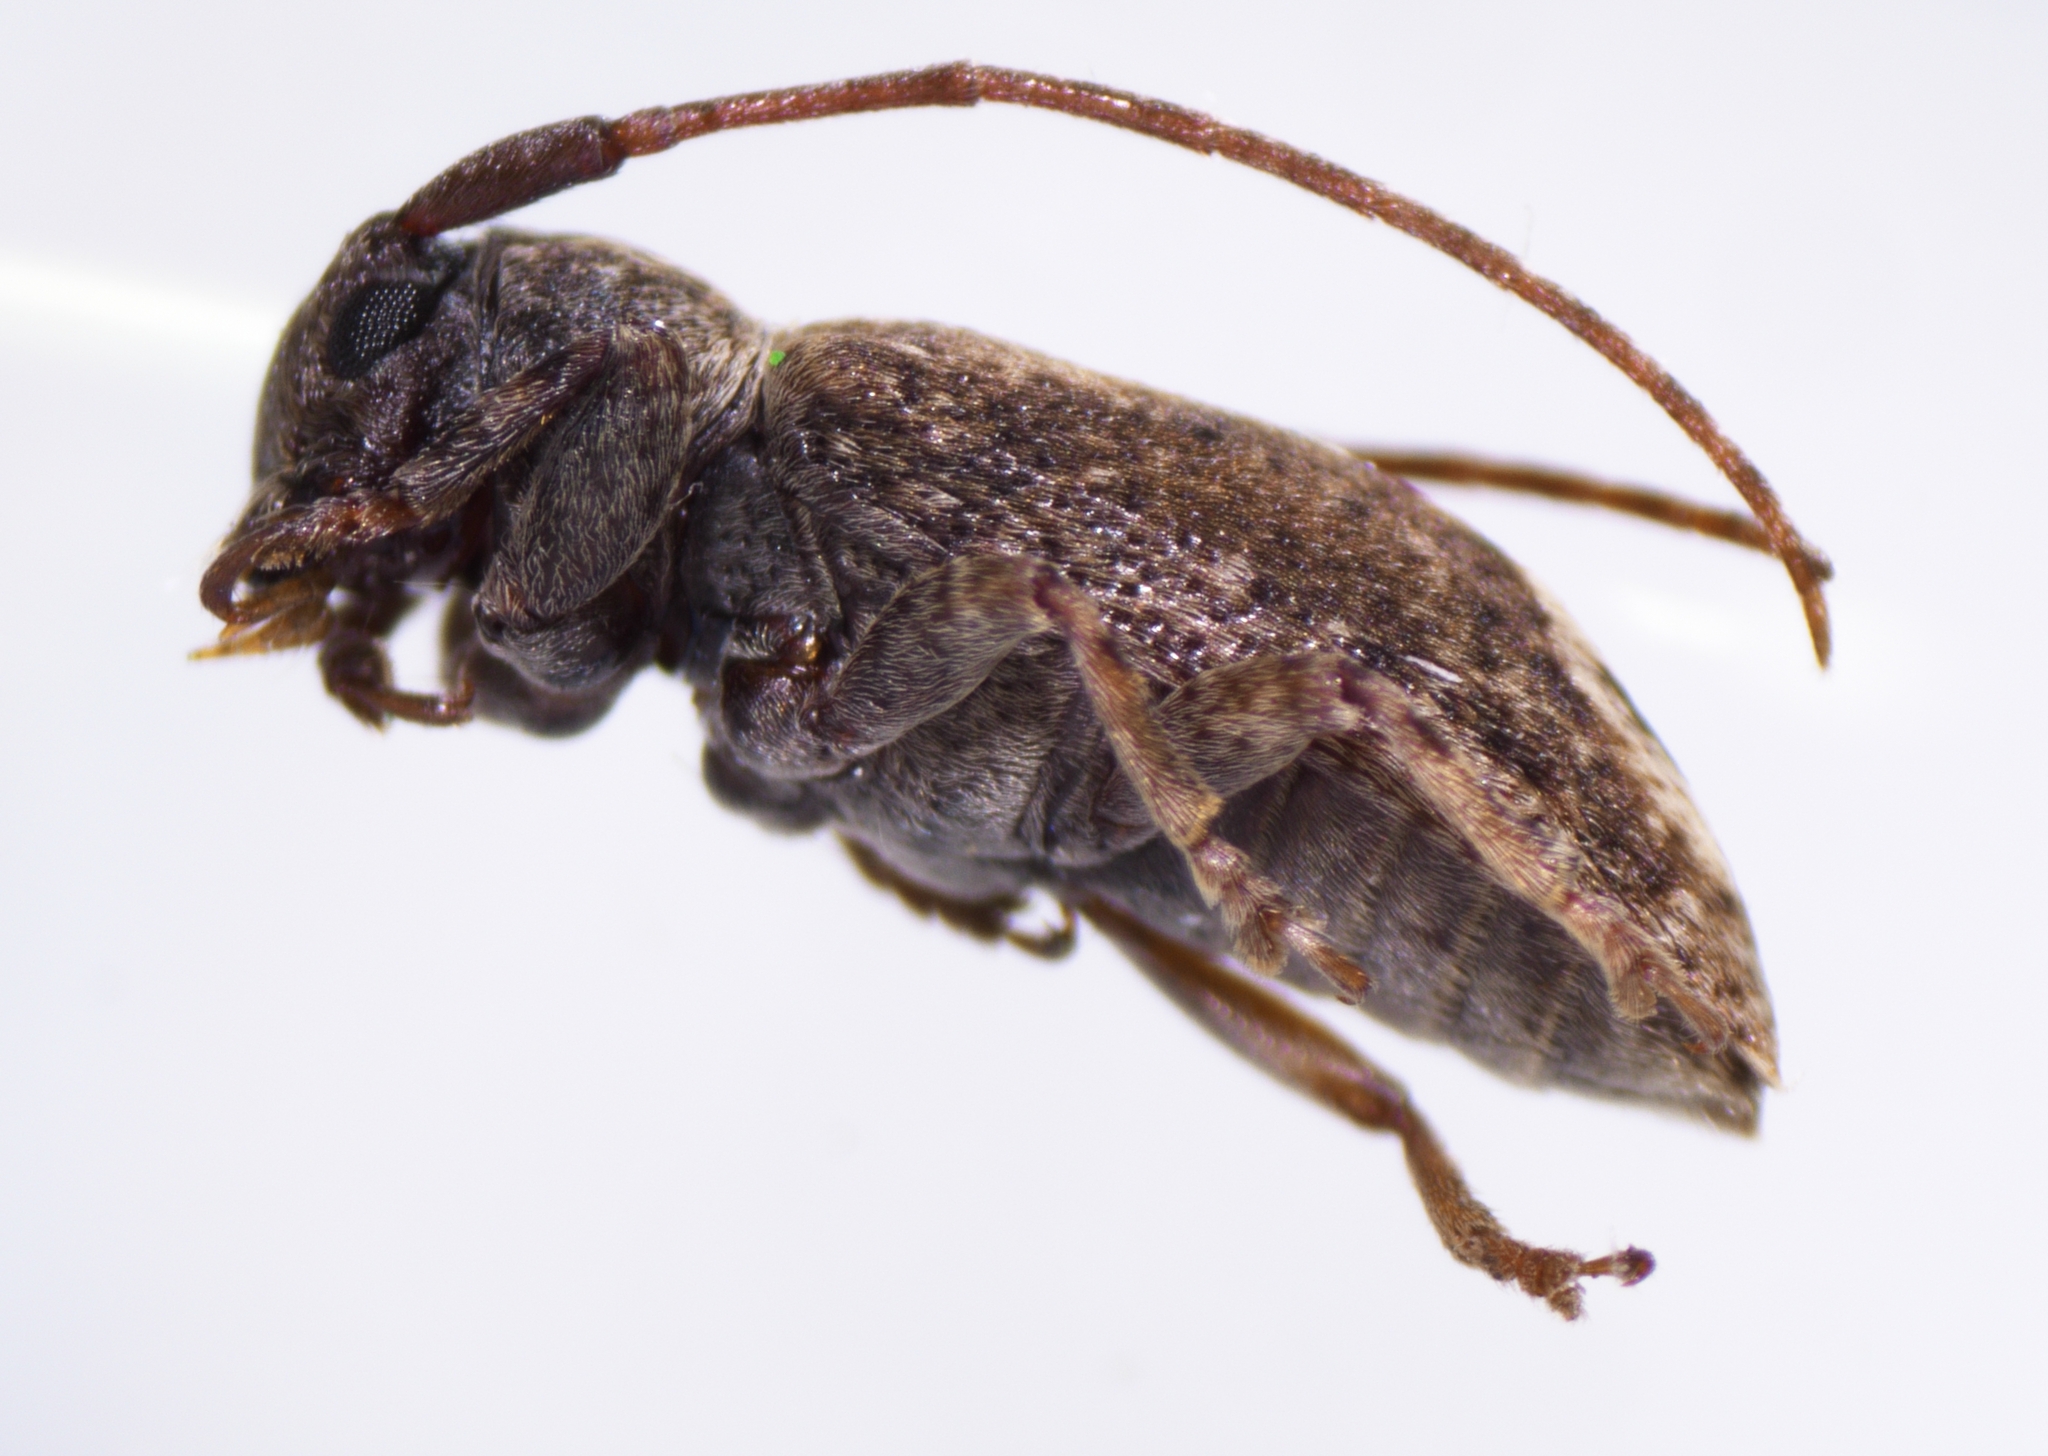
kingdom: Animalia
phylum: Arthropoda
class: Insecta
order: Coleoptera
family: Cerambycidae
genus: Pterolophia
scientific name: Pterolophia lateripicta
